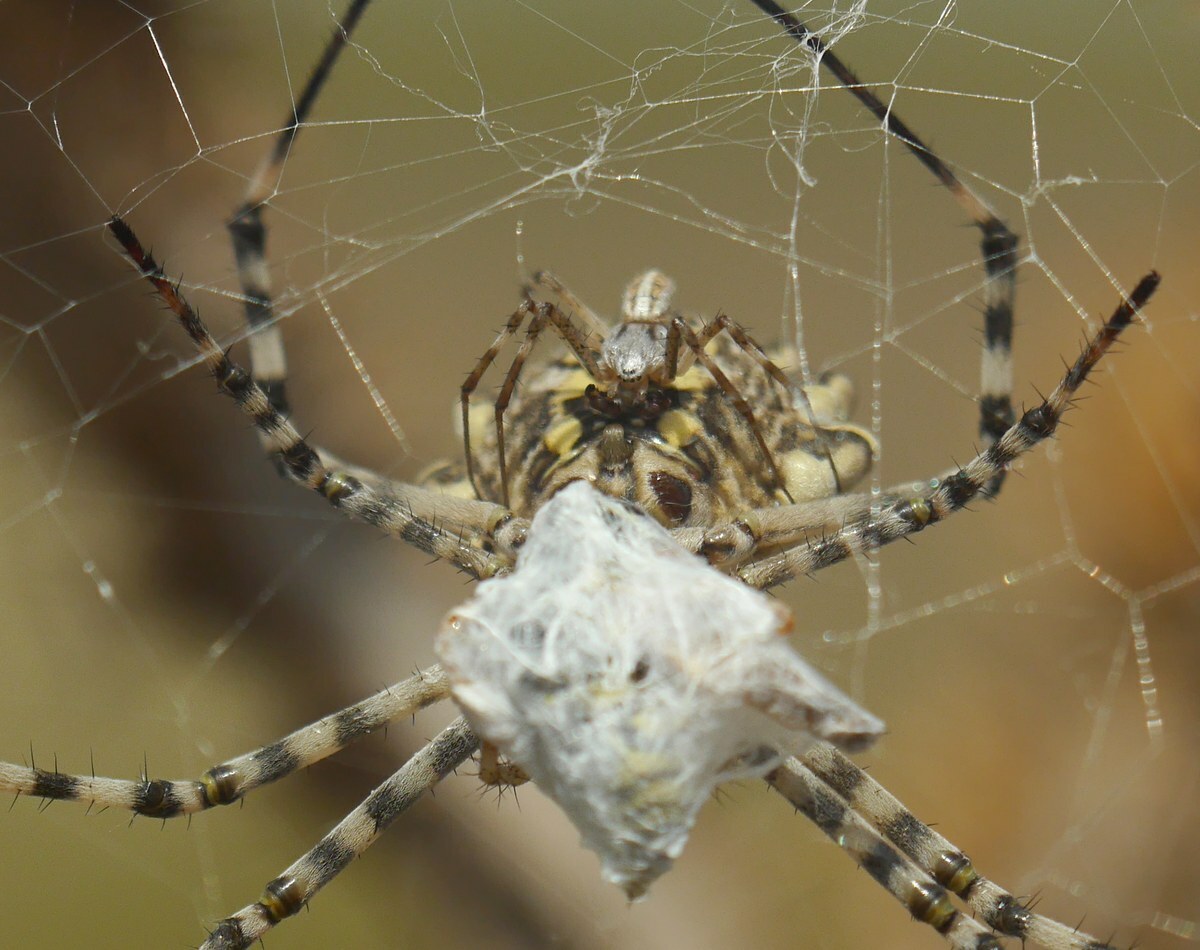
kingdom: Animalia
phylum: Arthropoda
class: Arachnida
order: Araneae
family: Araneidae
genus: Argiope
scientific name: Argiope lobata
